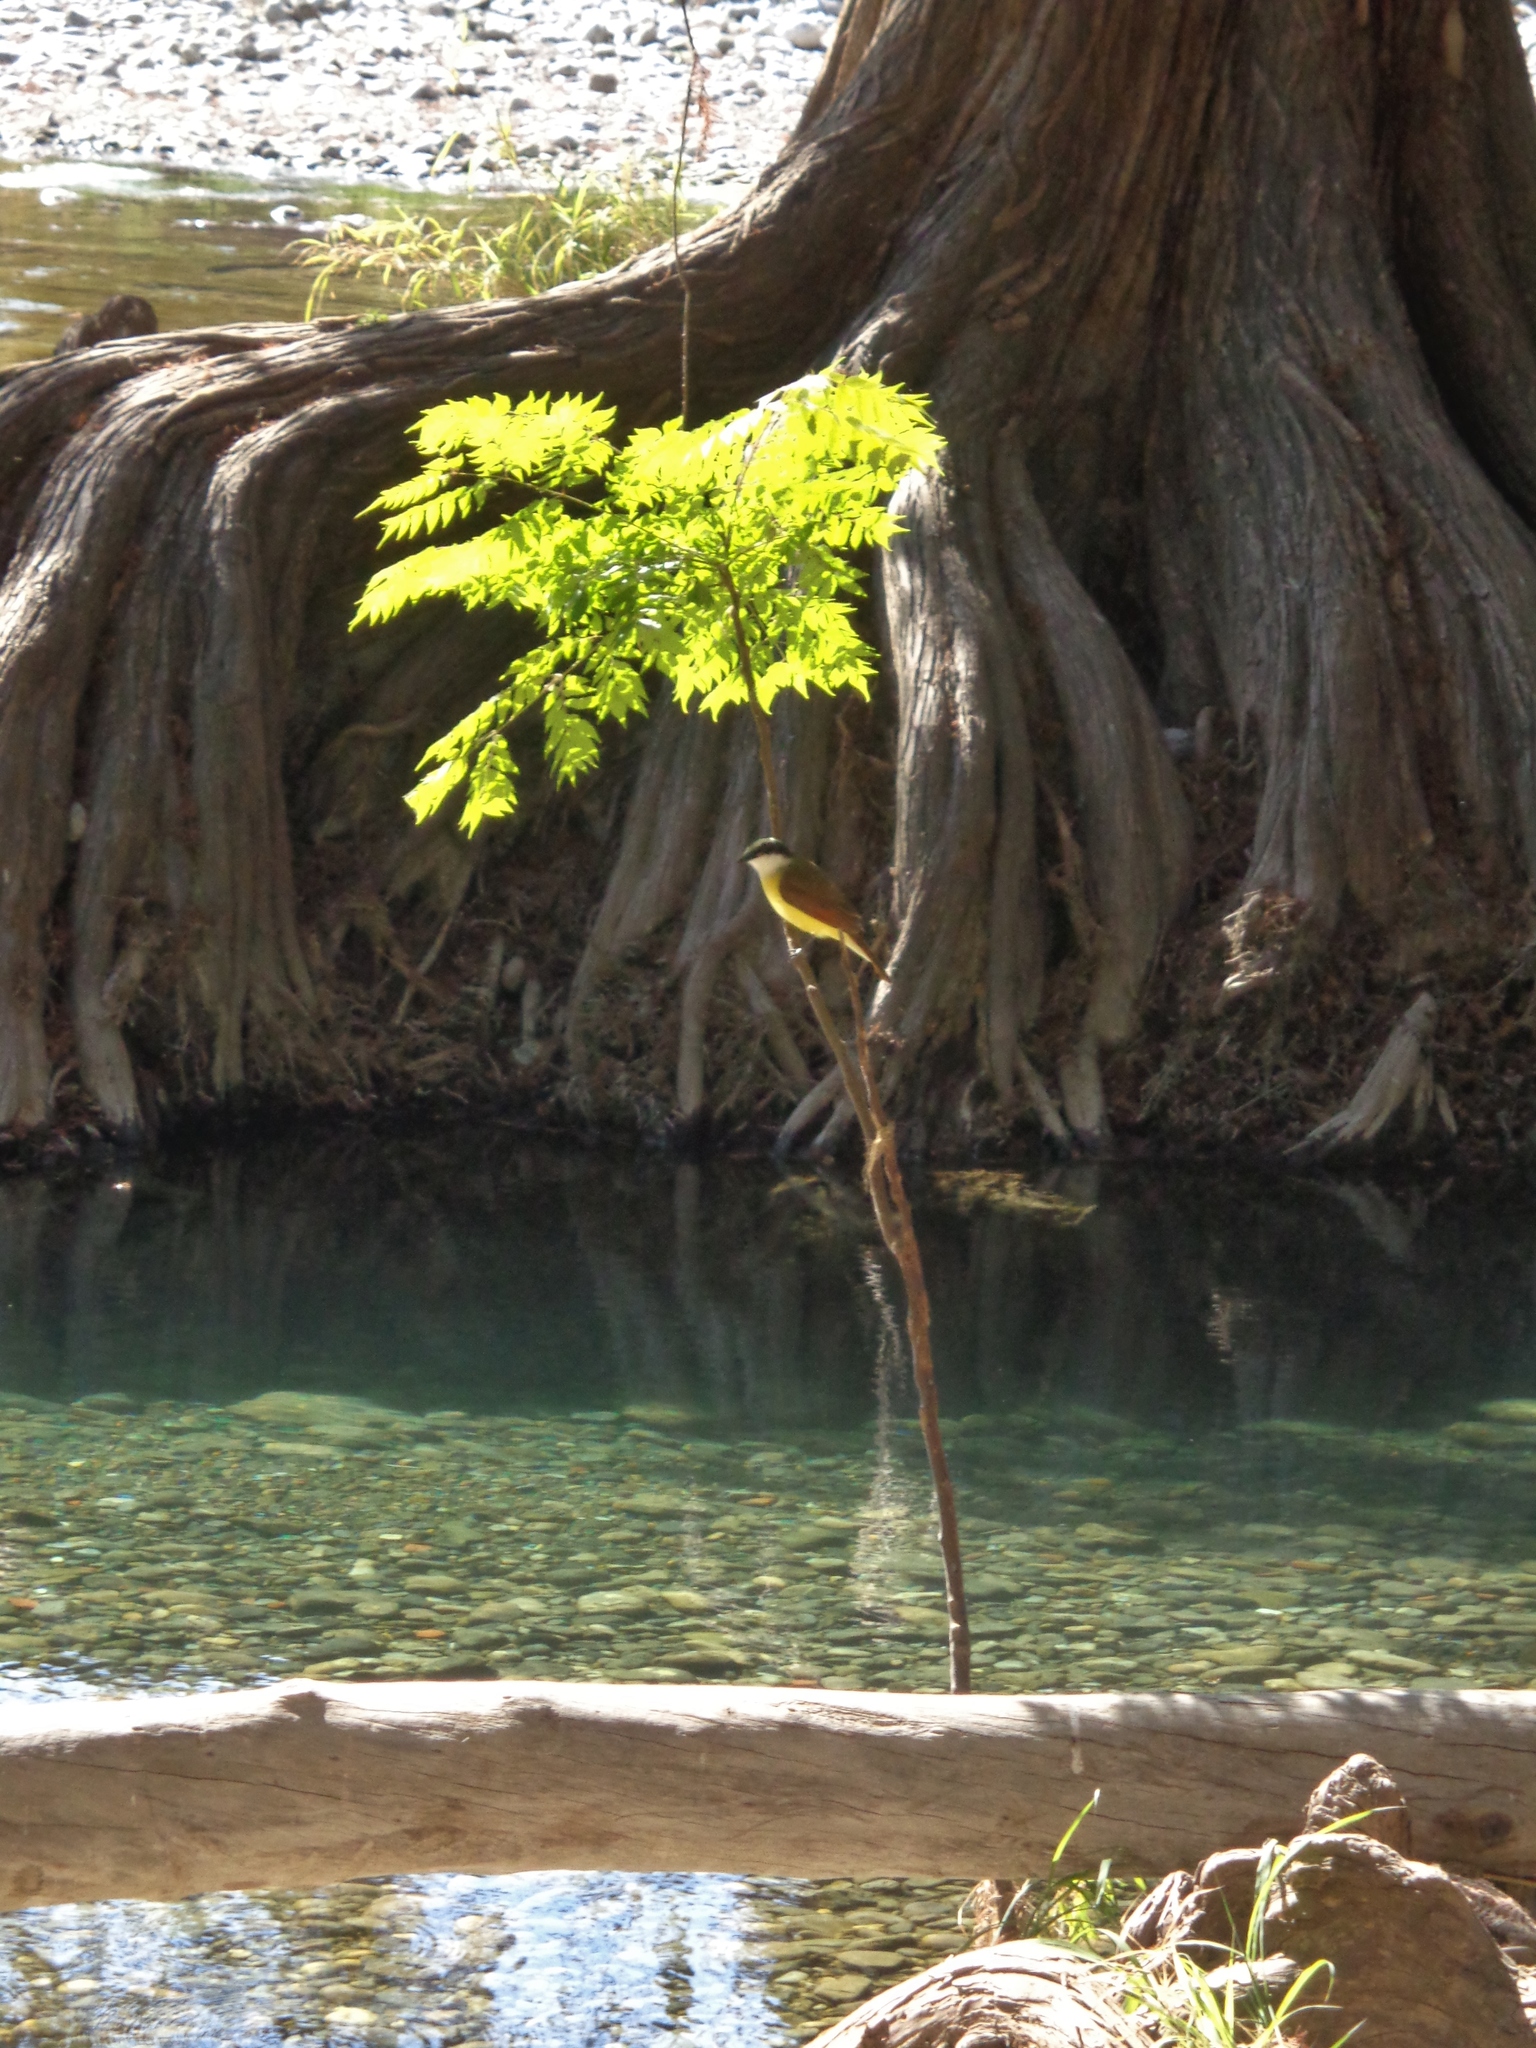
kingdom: Animalia
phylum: Chordata
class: Aves
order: Passeriformes
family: Tyrannidae
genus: Pitangus
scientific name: Pitangus sulphuratus
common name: Great kiskadee
